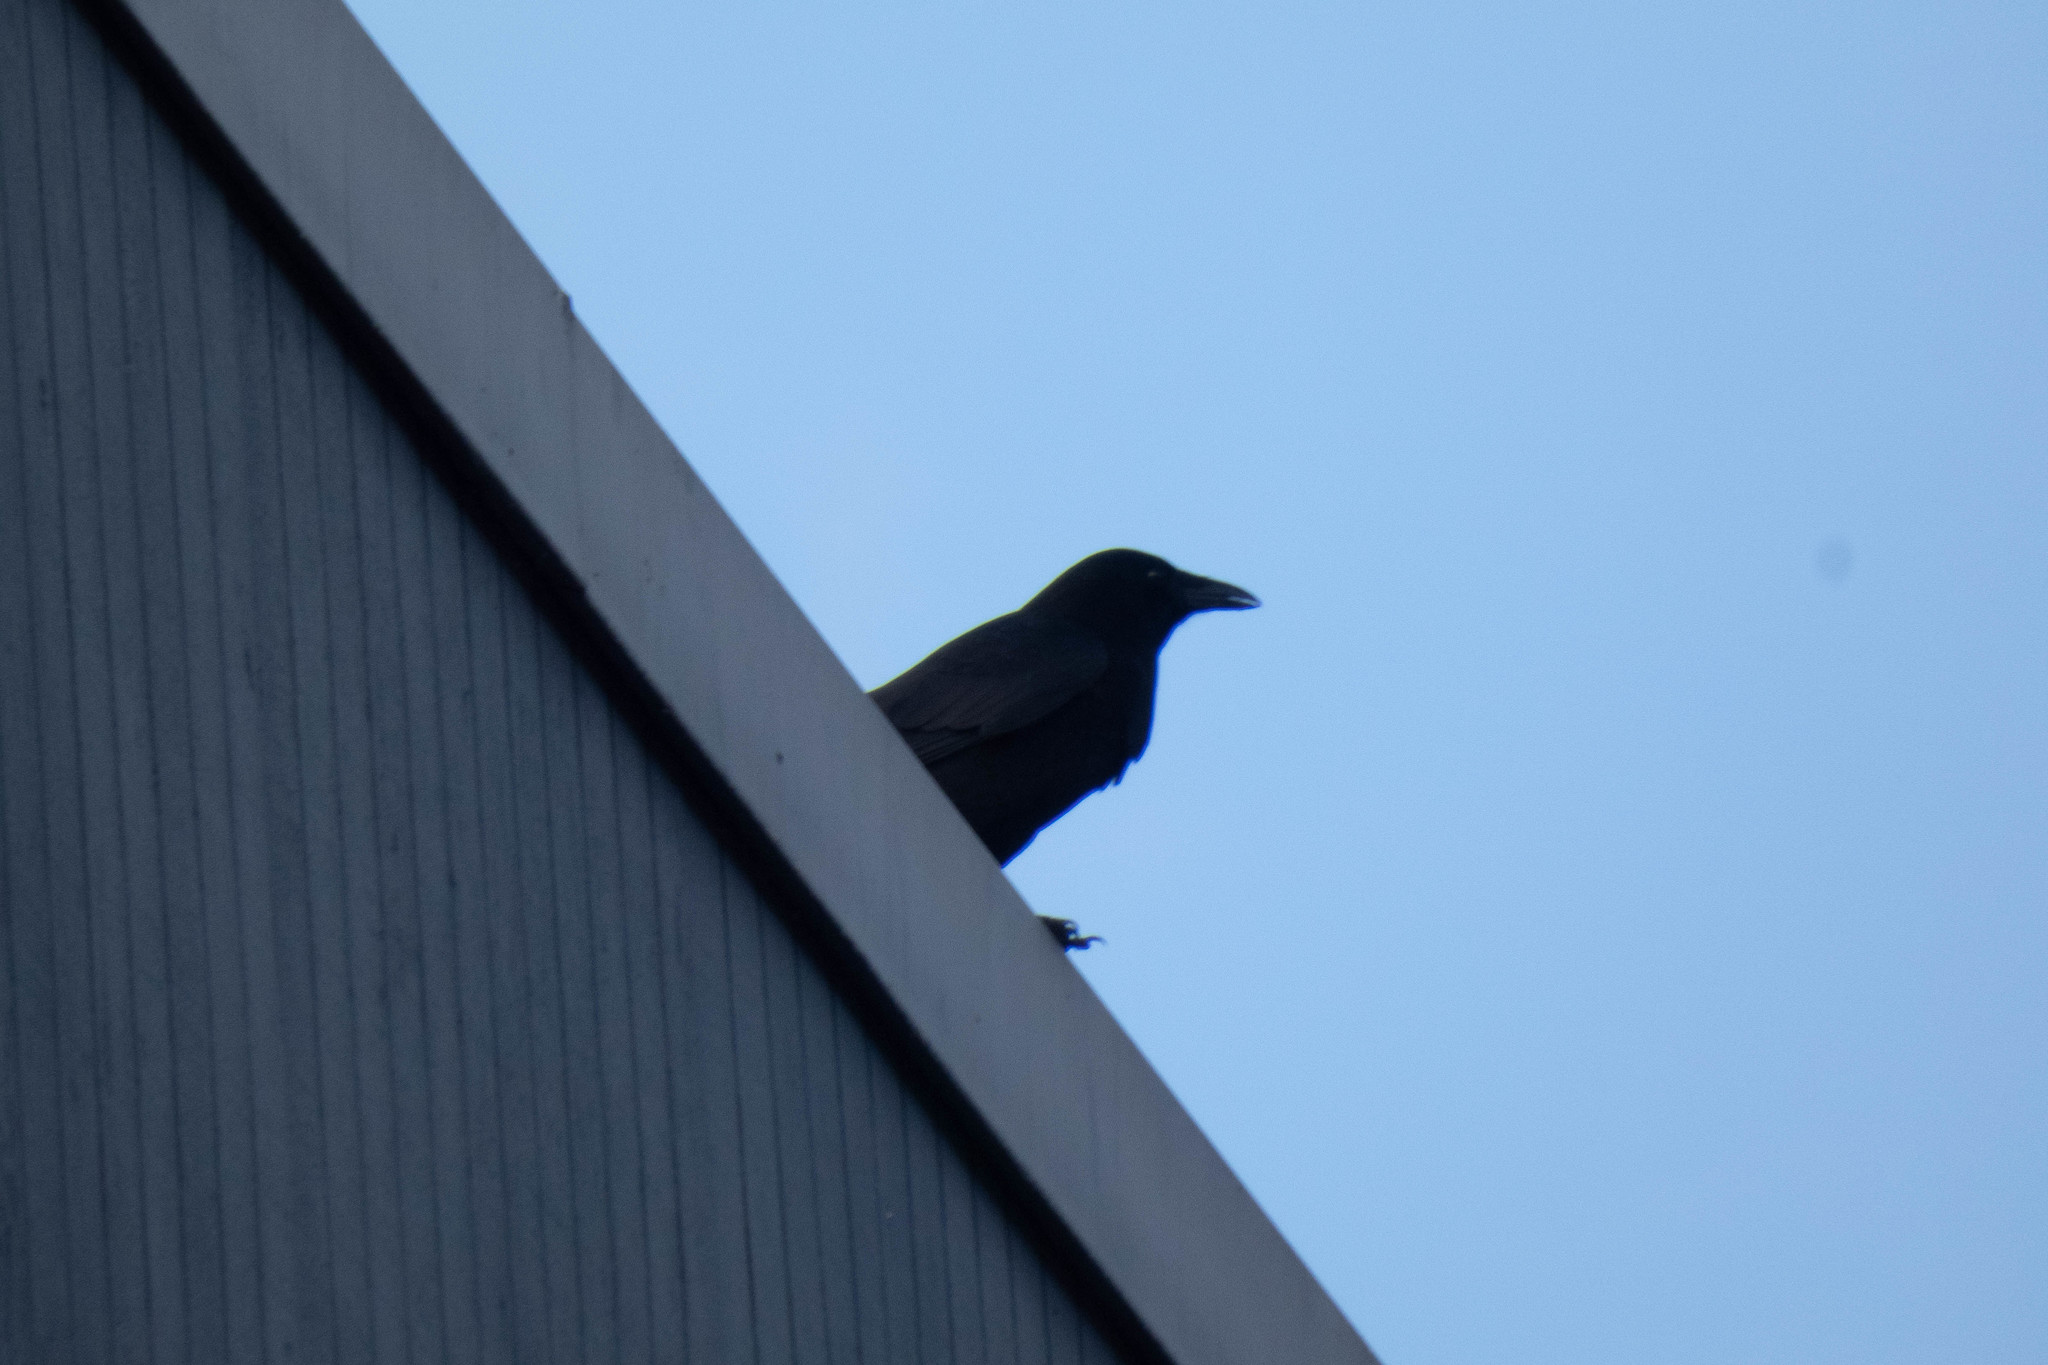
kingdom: Animalia
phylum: Chordata
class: Aves
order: Passeriformes
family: Corvidae
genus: Corvus
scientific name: Corvus brachyrhynchos
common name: American crow
